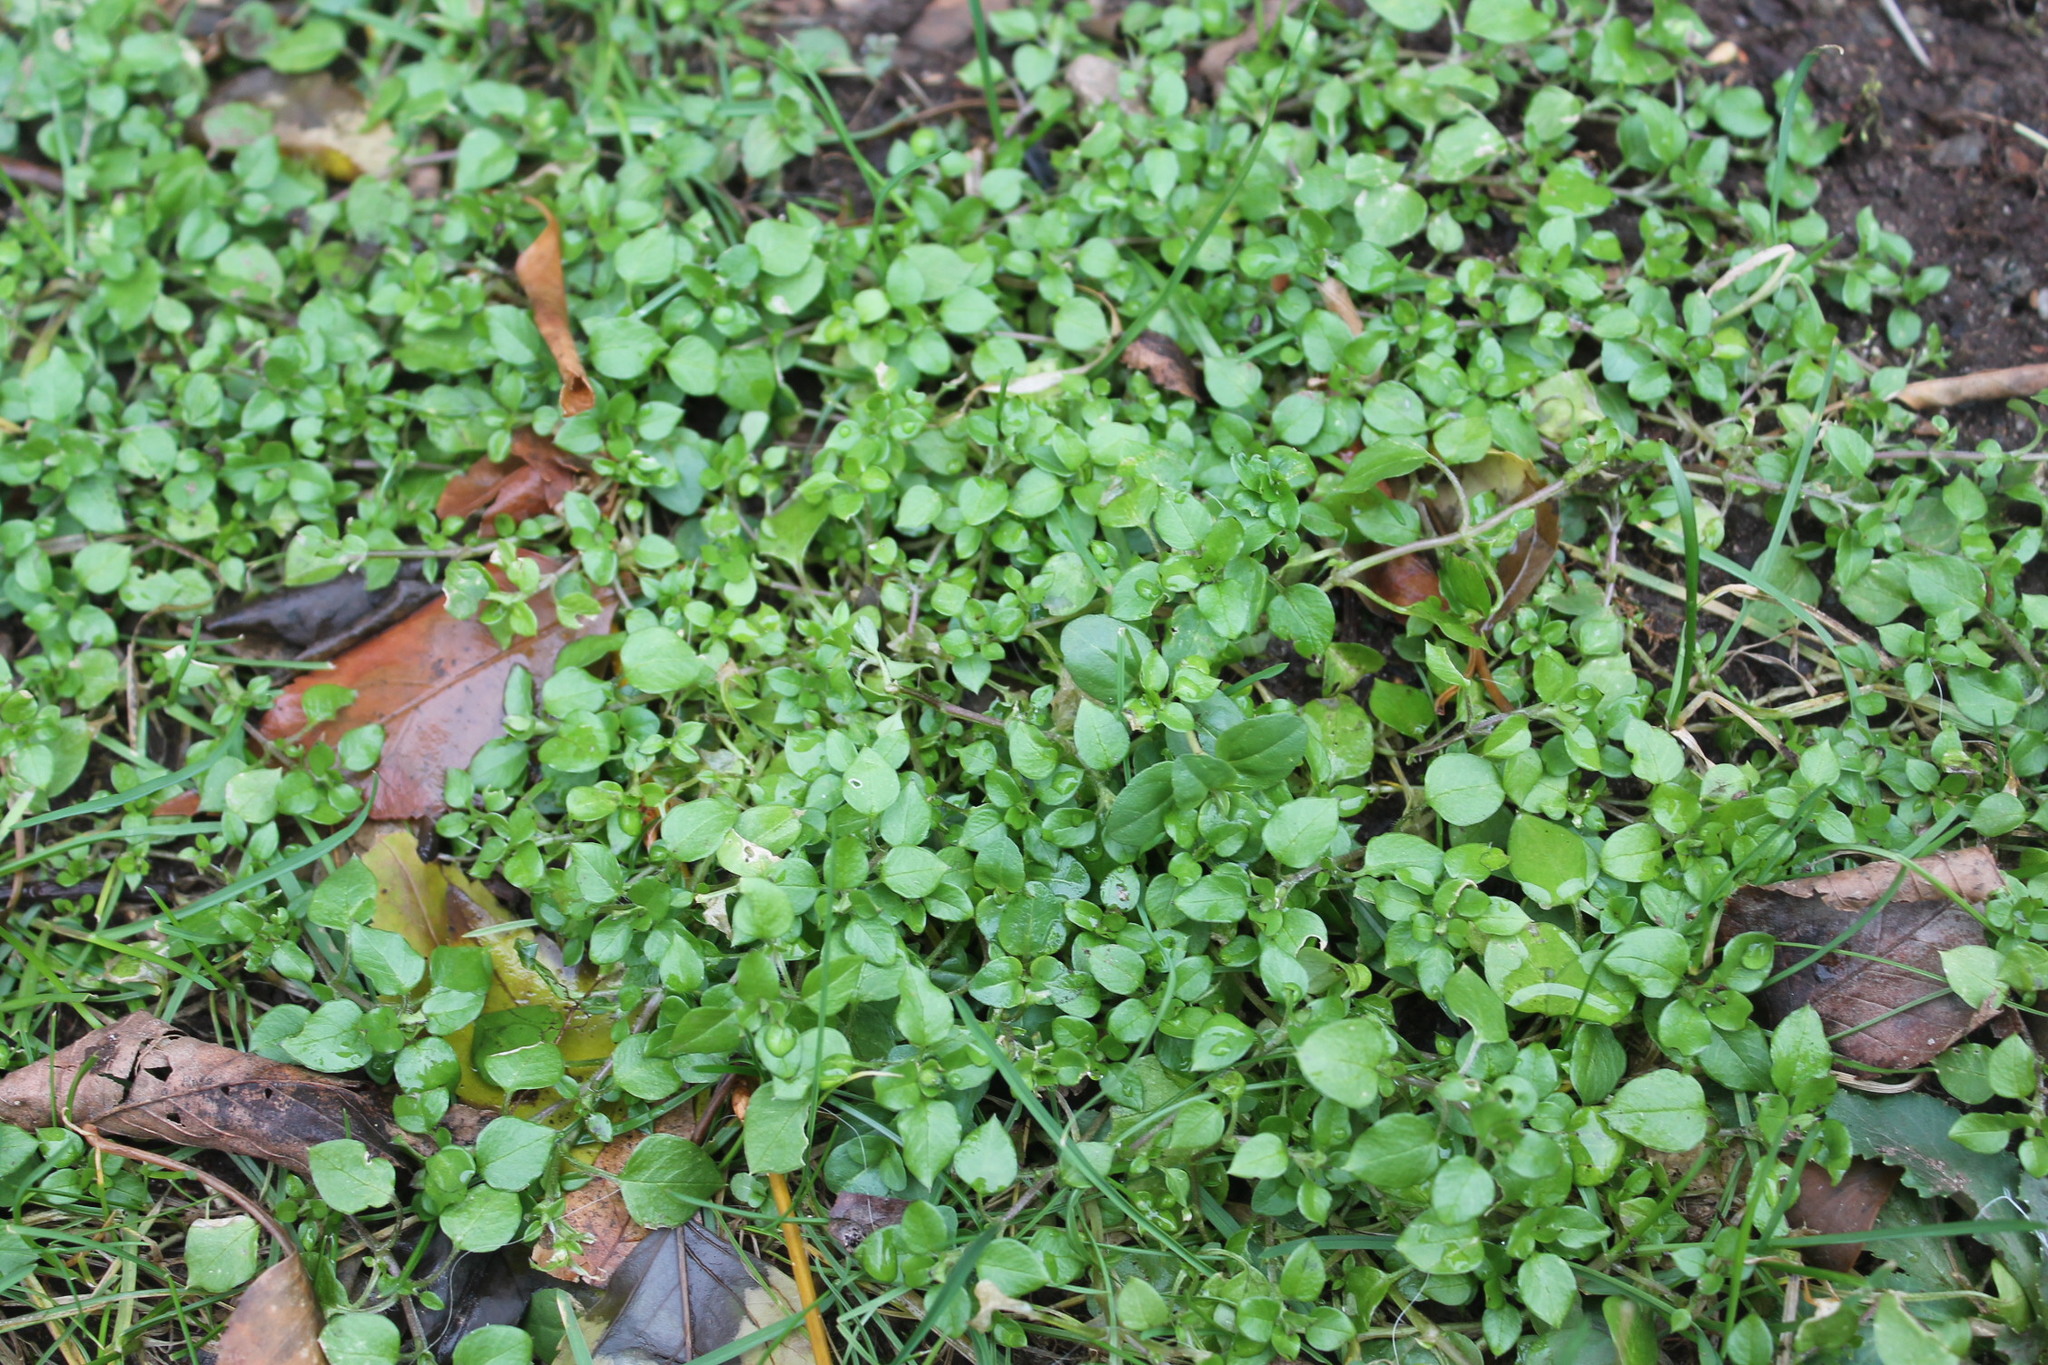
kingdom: Plantae
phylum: Tracheophyta
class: Magnoliopsida
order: Caryophyllales
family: Caryophyllaceae
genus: Stellaria
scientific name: Stellaria media
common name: Common chickweed
